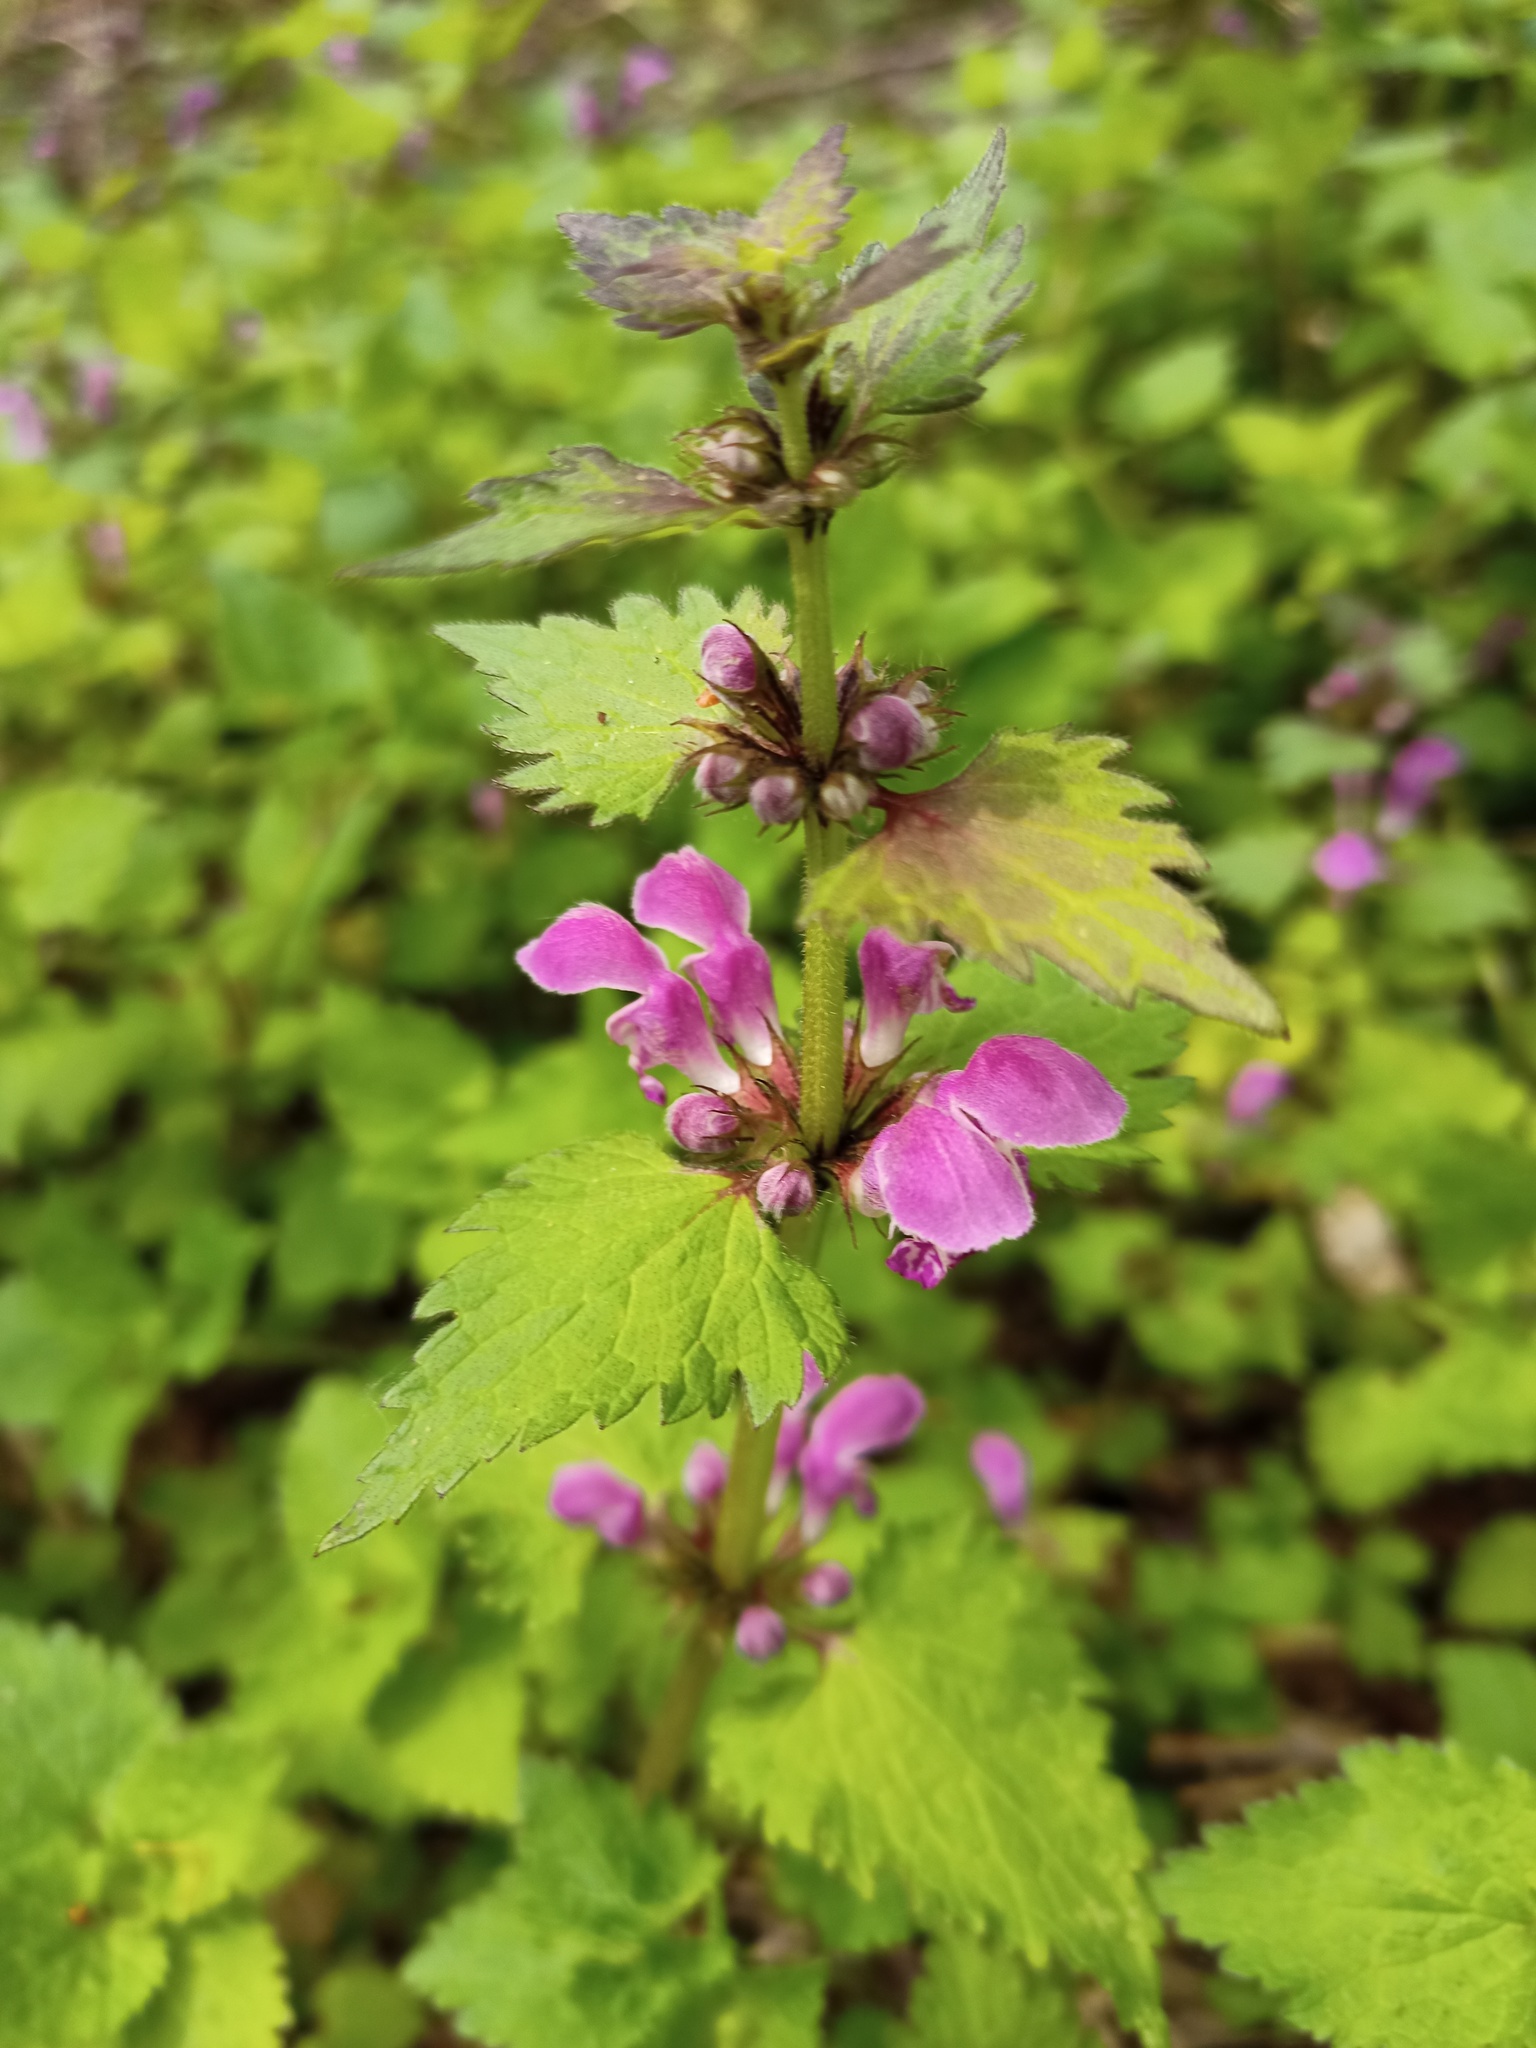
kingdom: Plantae
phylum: Tracheophyta
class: Magnoliopsida
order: Lamiales
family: Lamiaceae
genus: Lamium
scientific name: Lamium maculatum
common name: Spotted dead-nettle
